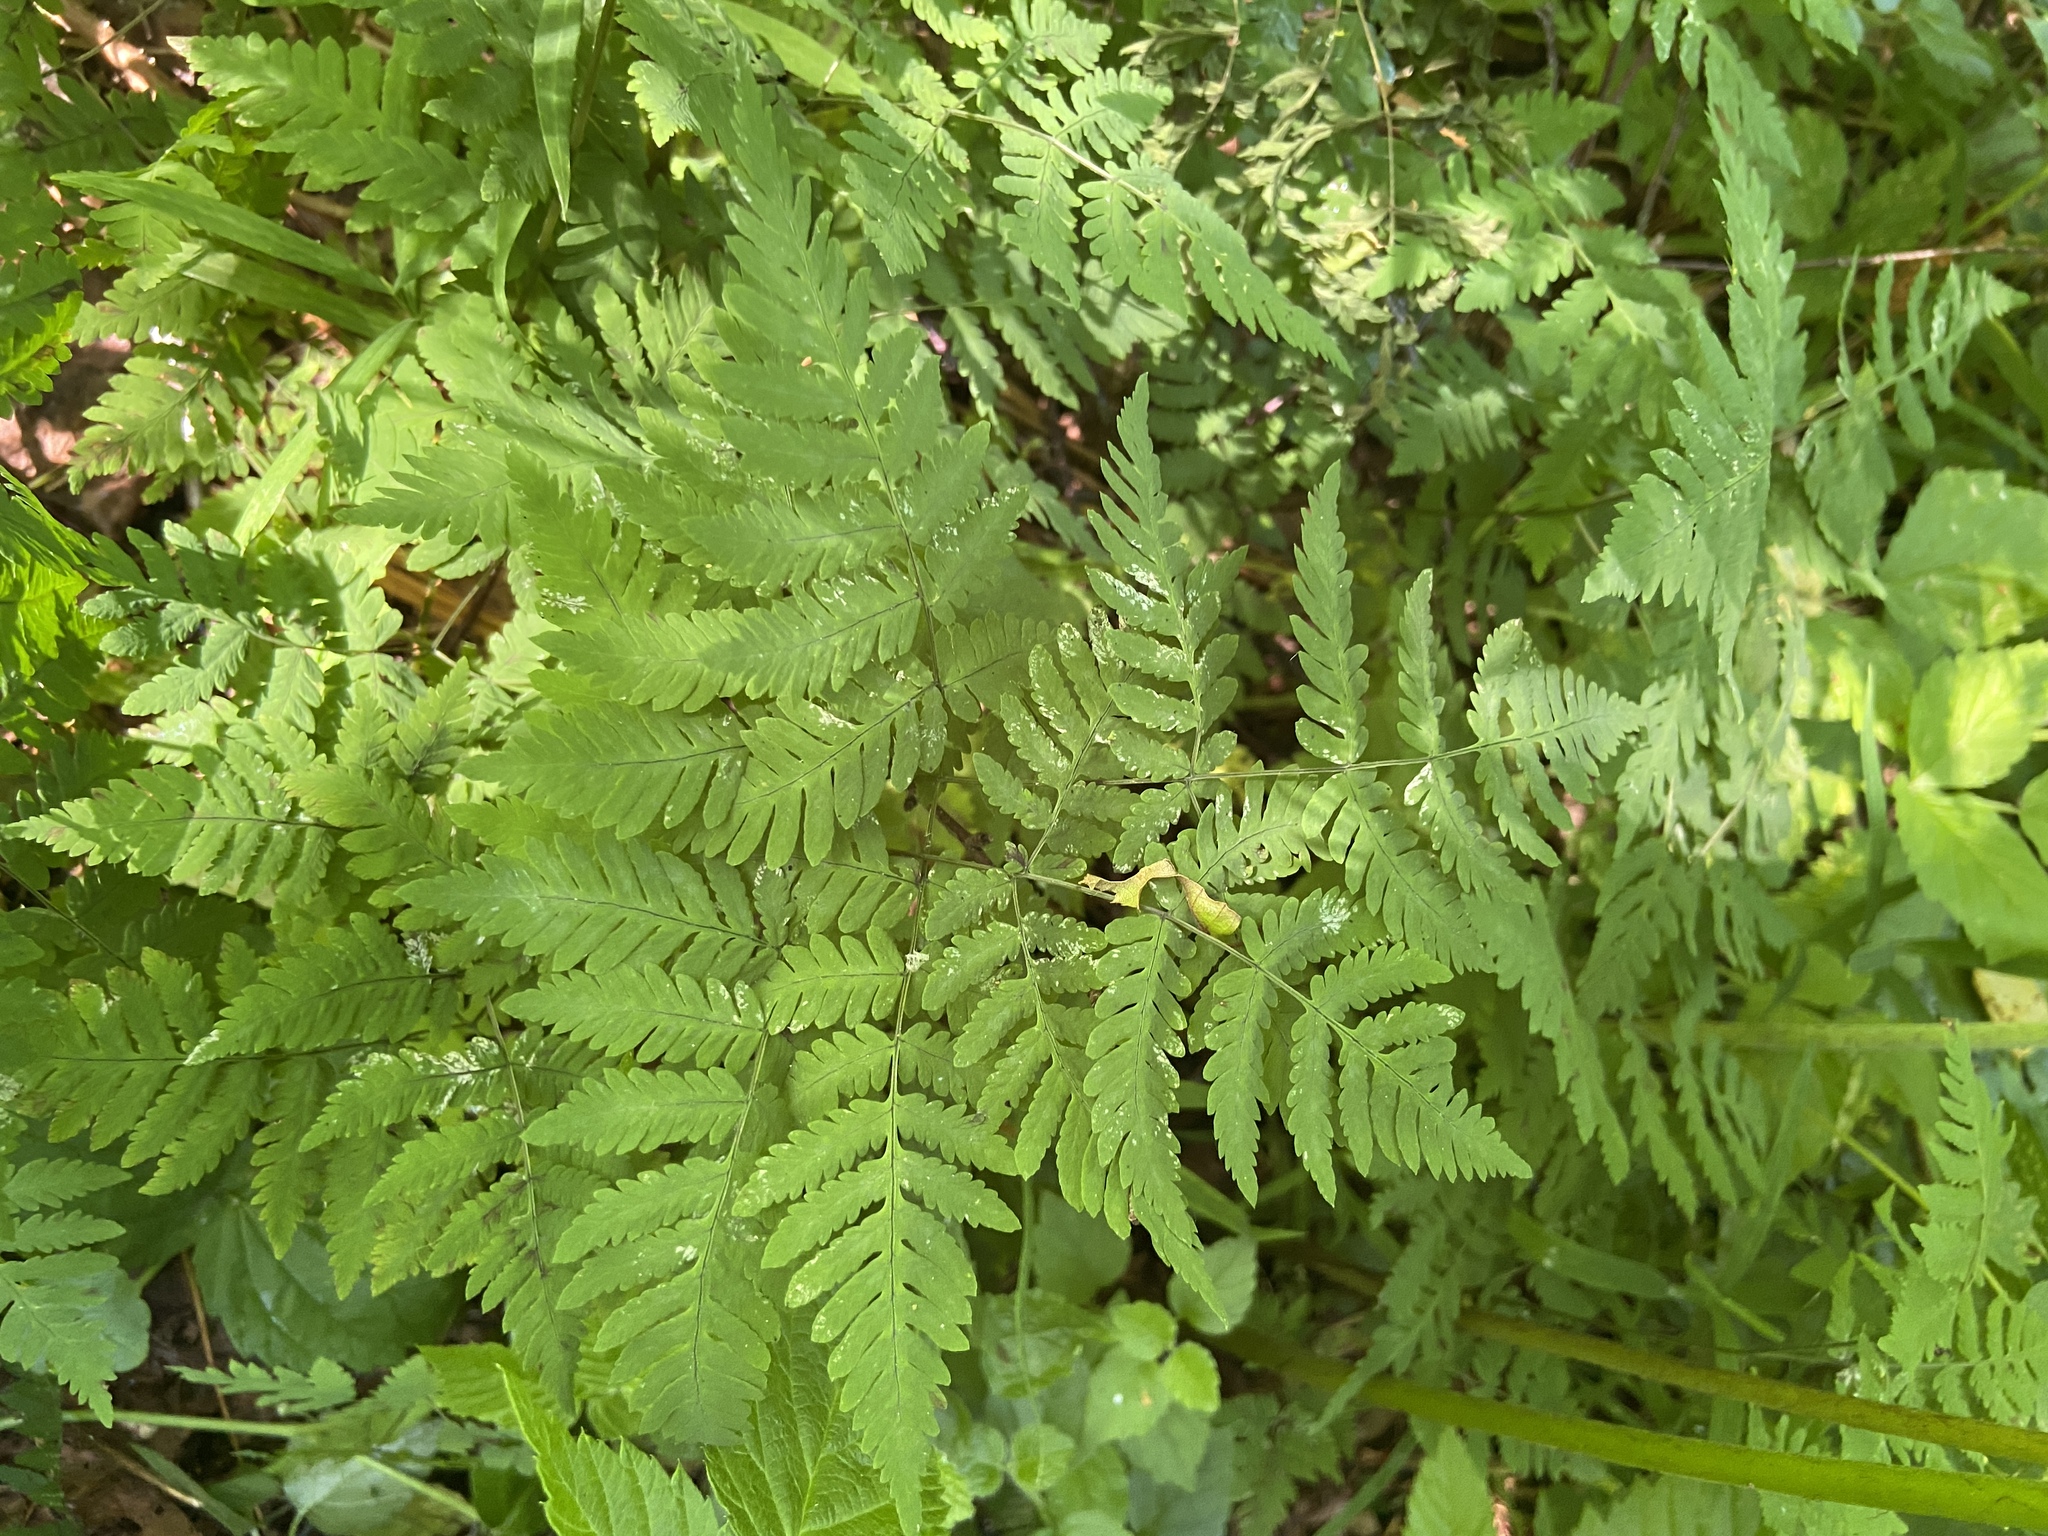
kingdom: Plantae
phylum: Tracheophyta
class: Polypodiopsida
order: Polypodiales
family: Cystopteridaceae
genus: Gymnocarpium
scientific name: Gymnocarpium dryopteris
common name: Oak fern
